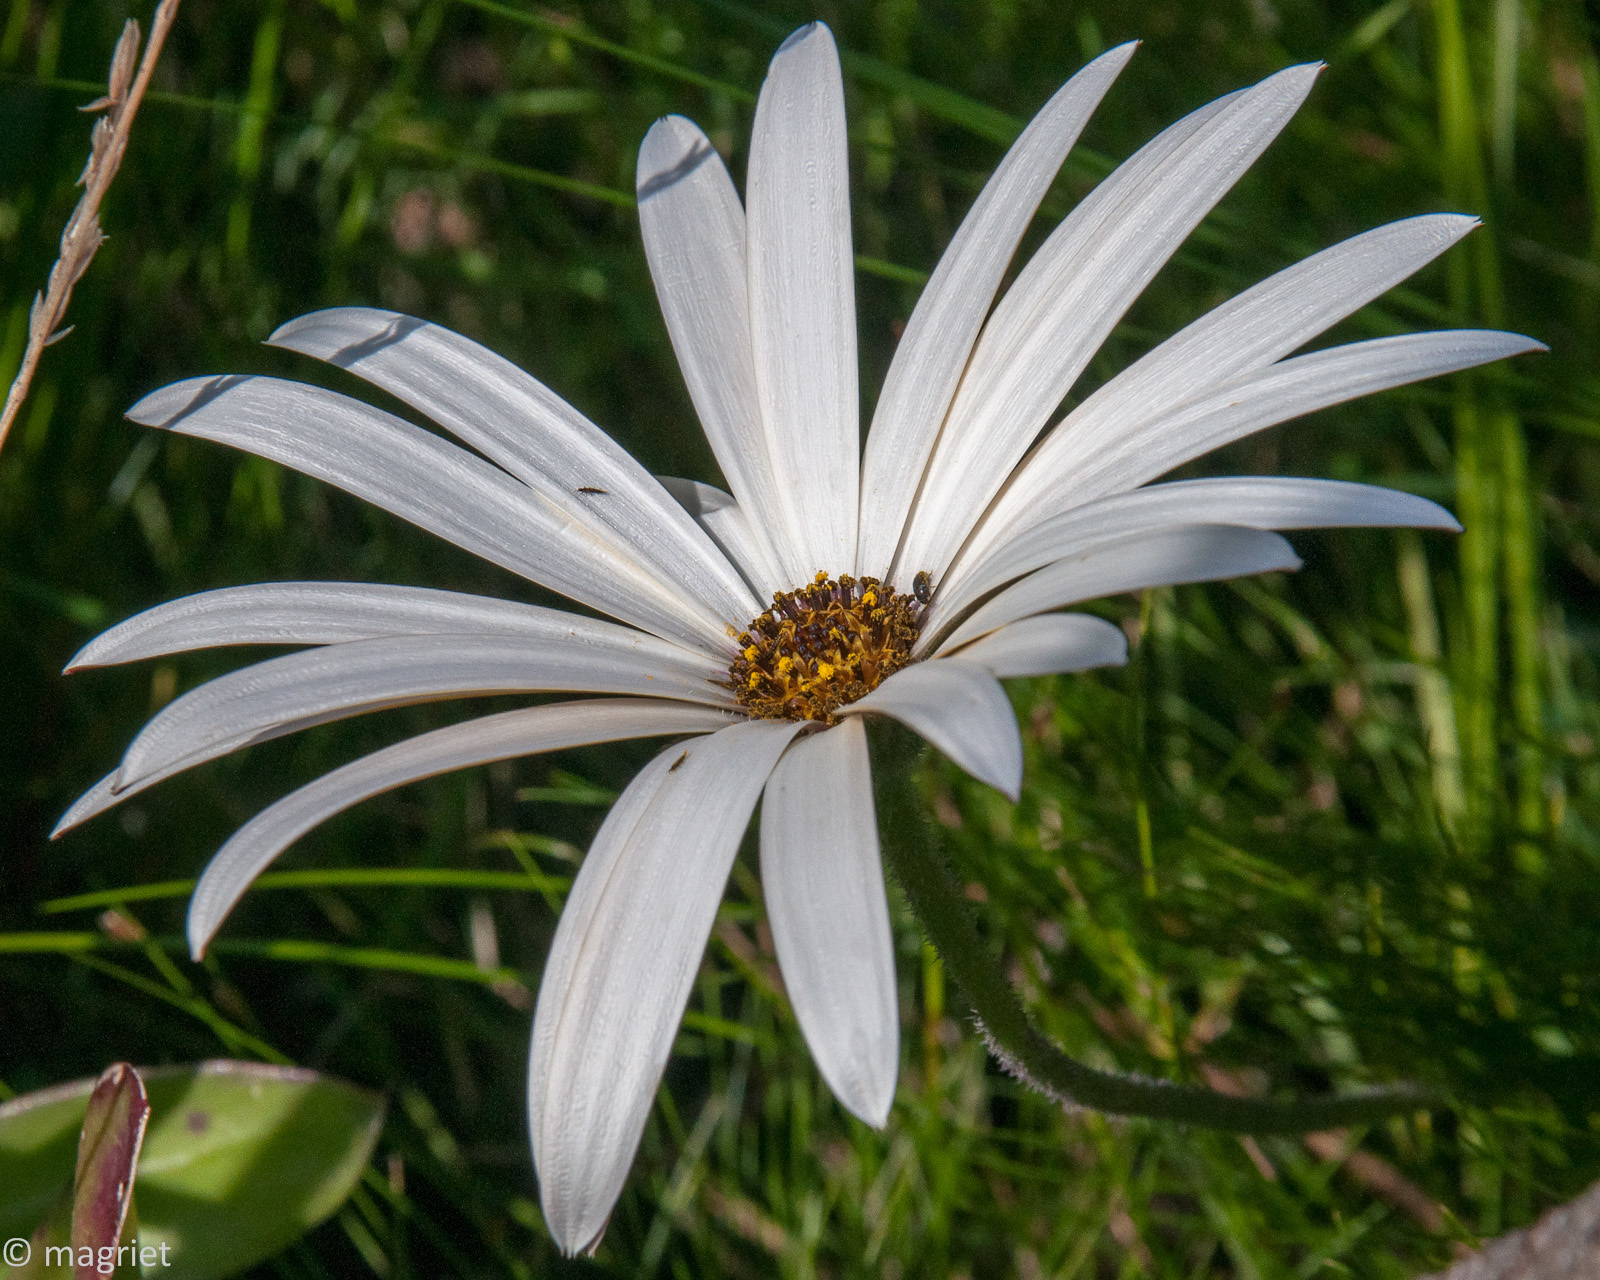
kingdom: Plantae
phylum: Tracheophyta
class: Magnoliopsida
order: Asterales
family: Asteraceae
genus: Dimorphotheca
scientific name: Dimorphotheca nudicaulis
